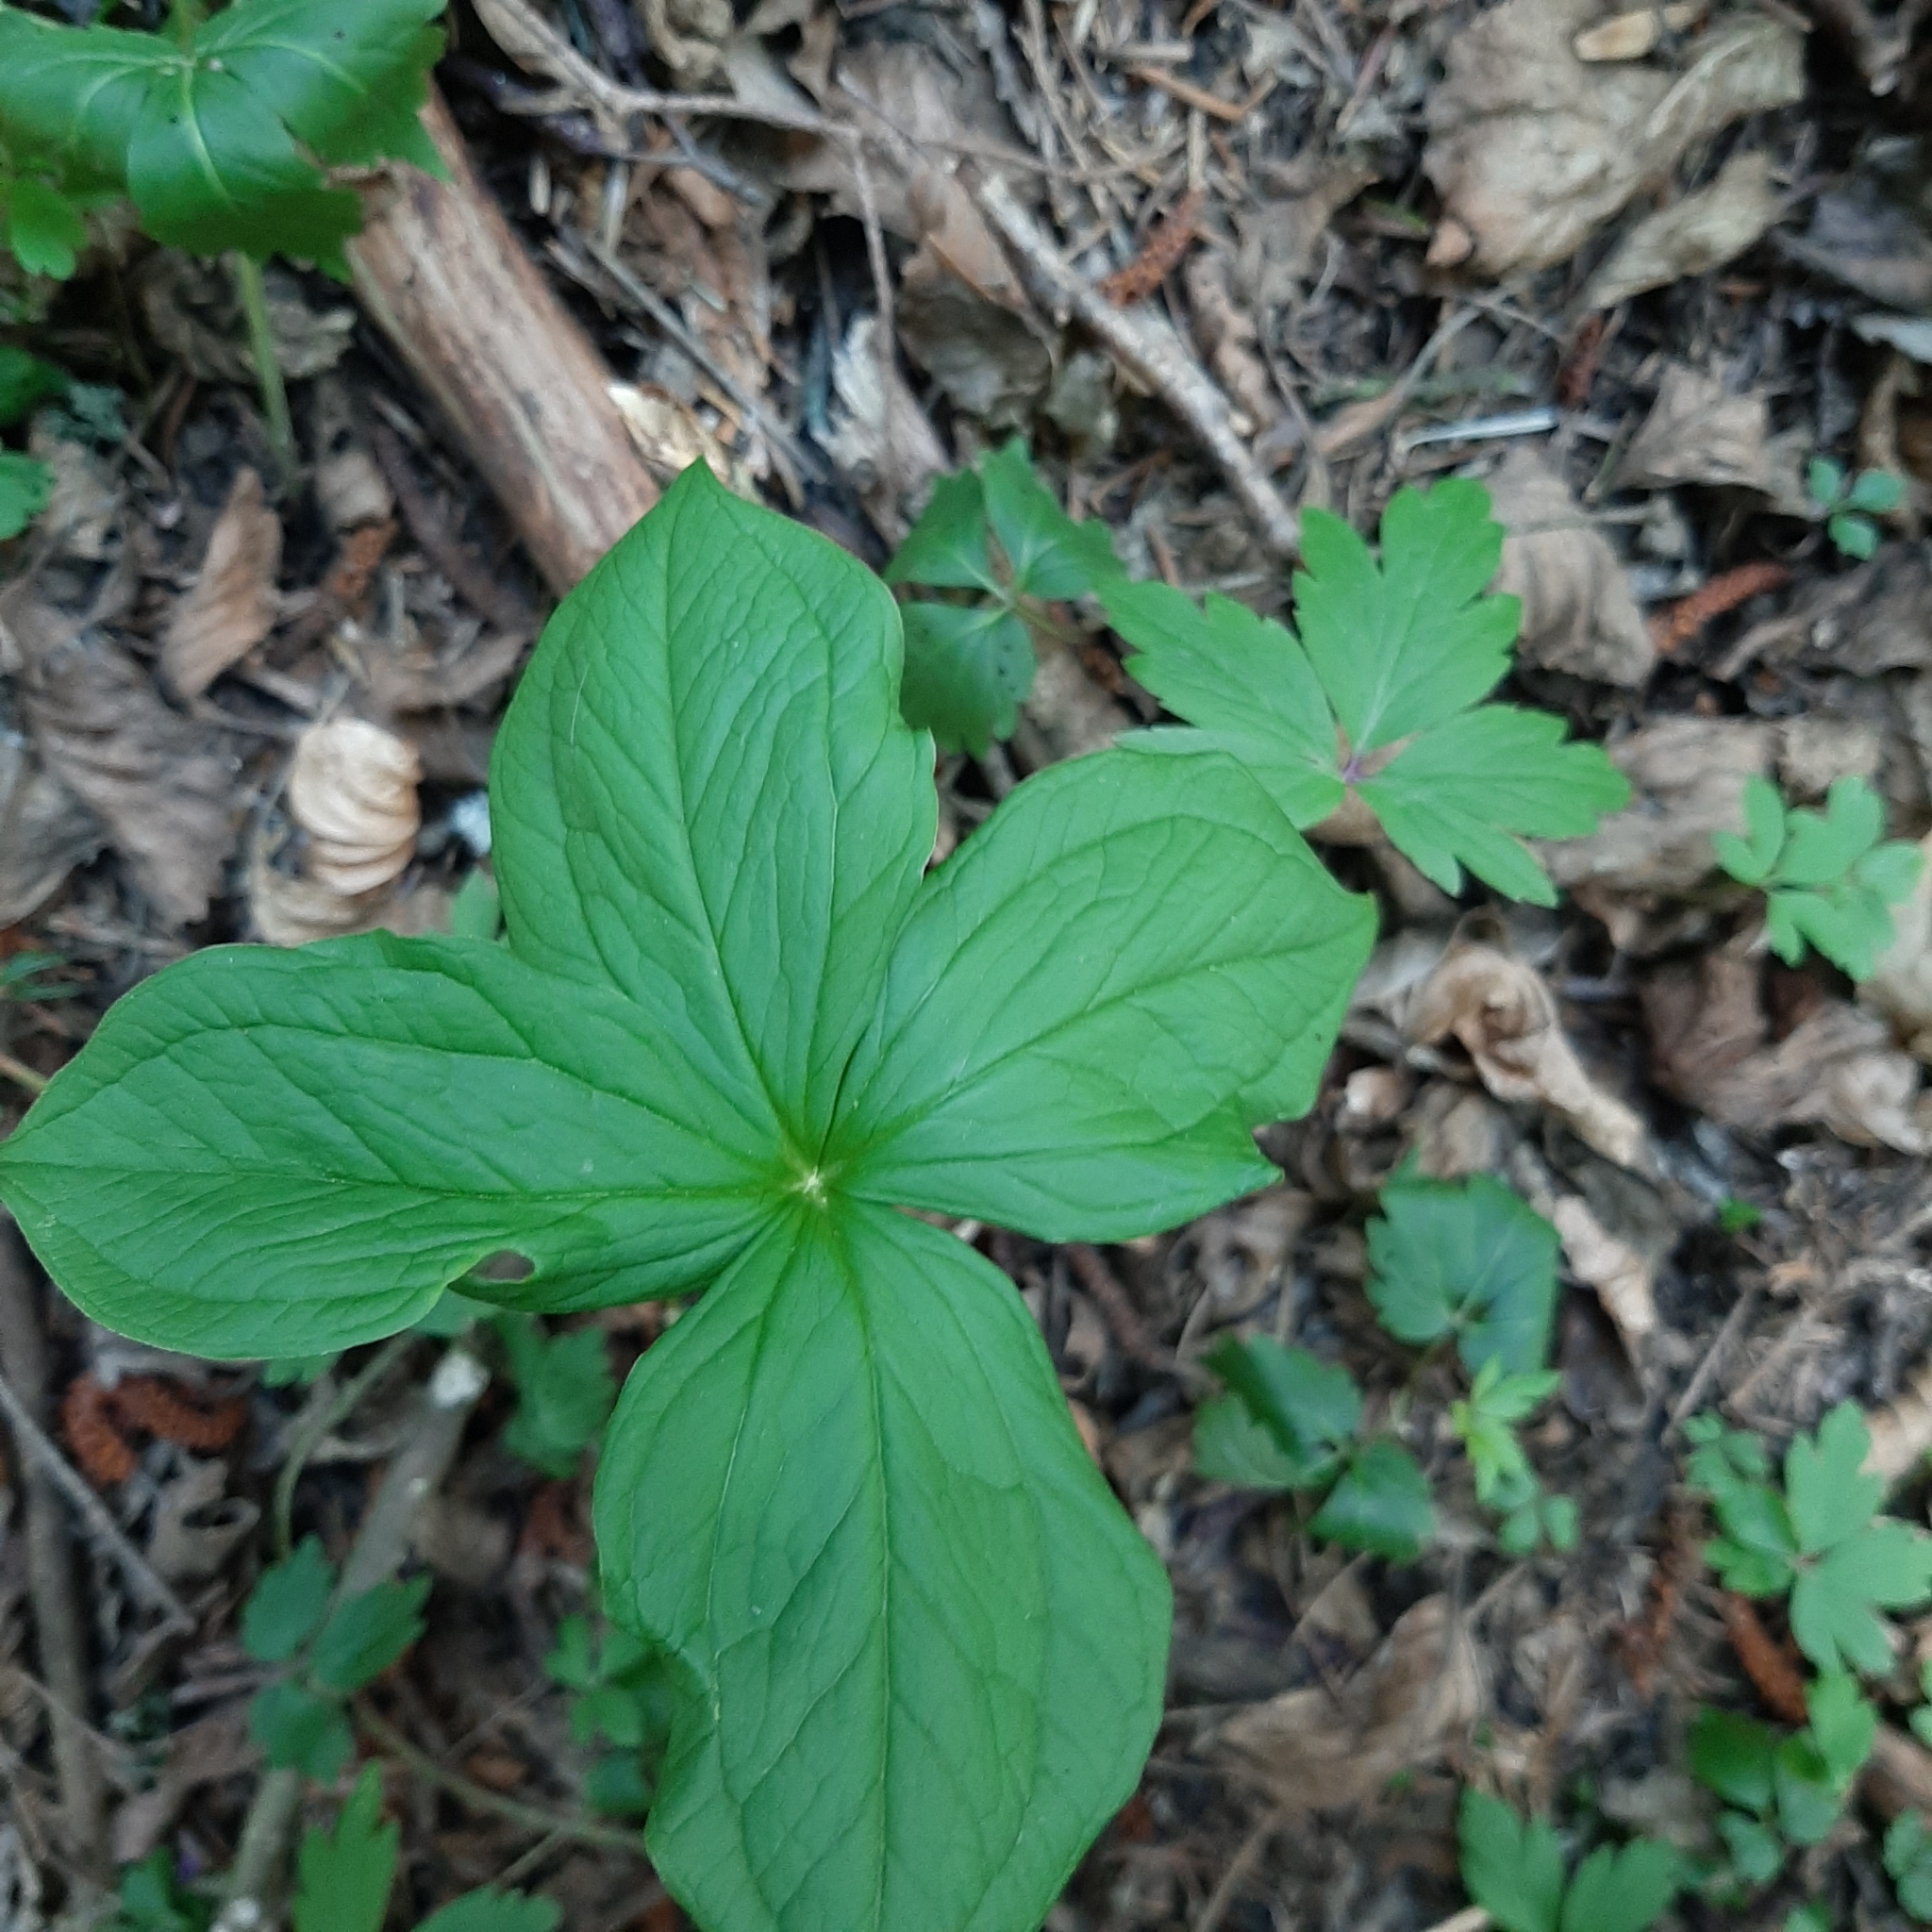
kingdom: Plantae
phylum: Tracheophyta
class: Liliopsida
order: Liliales
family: Melanthiaceae
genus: Paris
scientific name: Paris quadrifolia
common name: Herb-paris
